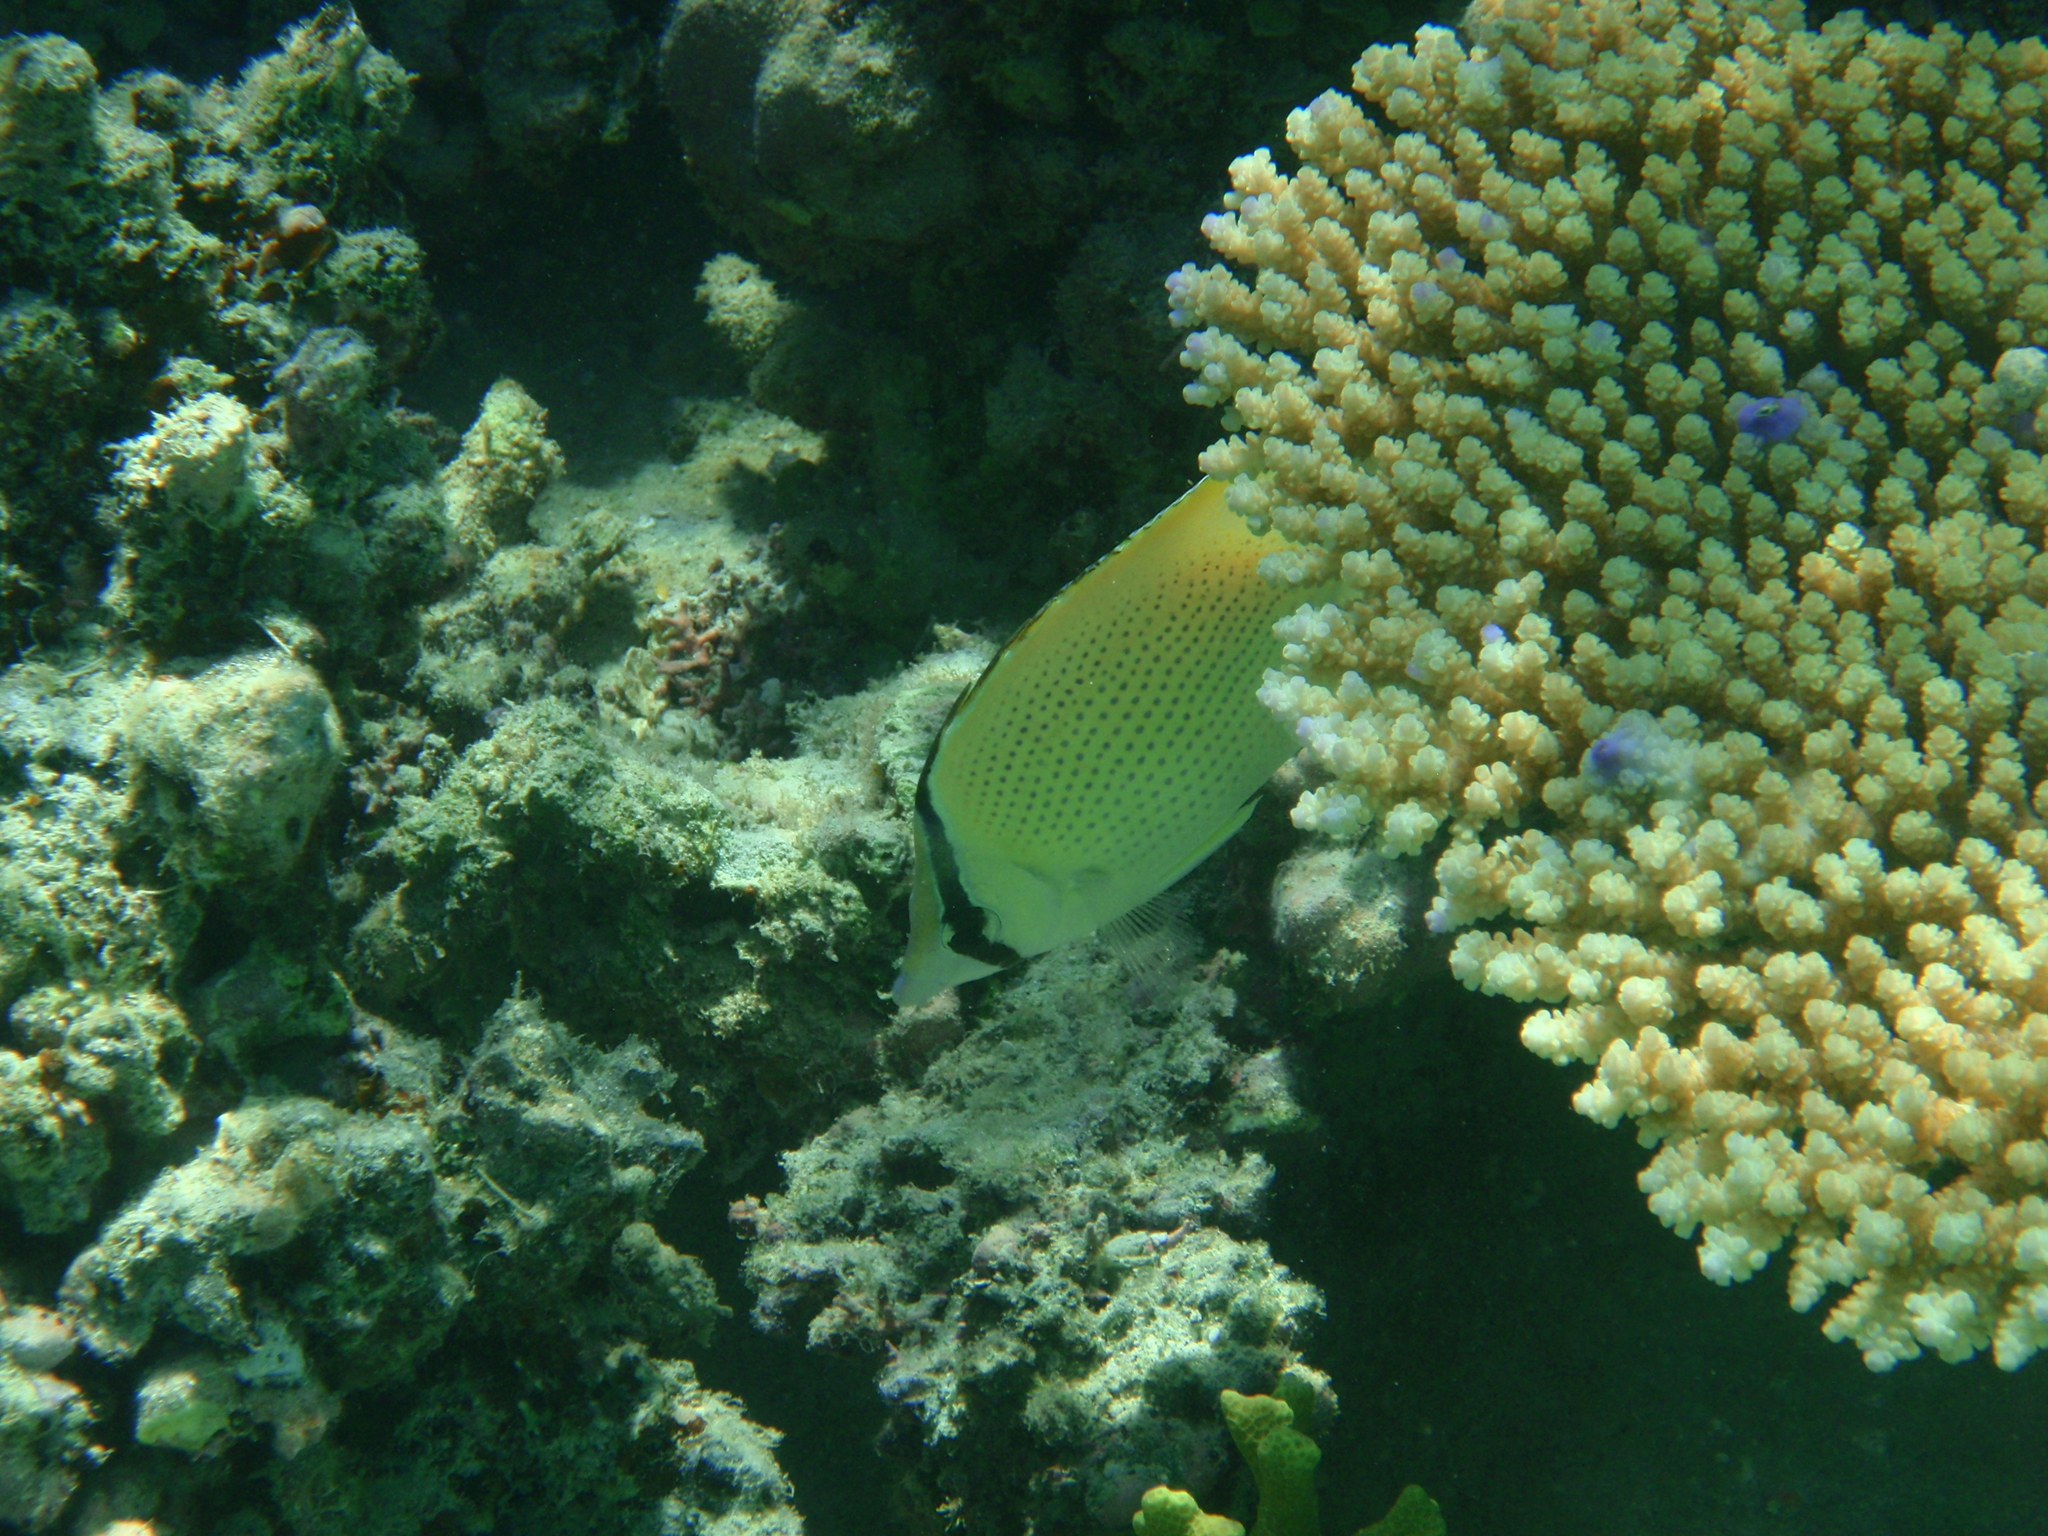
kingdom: Animalia
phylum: Chordata
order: Perciformes
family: Chaetodontidae
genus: Chaetodon
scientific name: Chaetodon citrinellus
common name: Speckled butterflyfish
